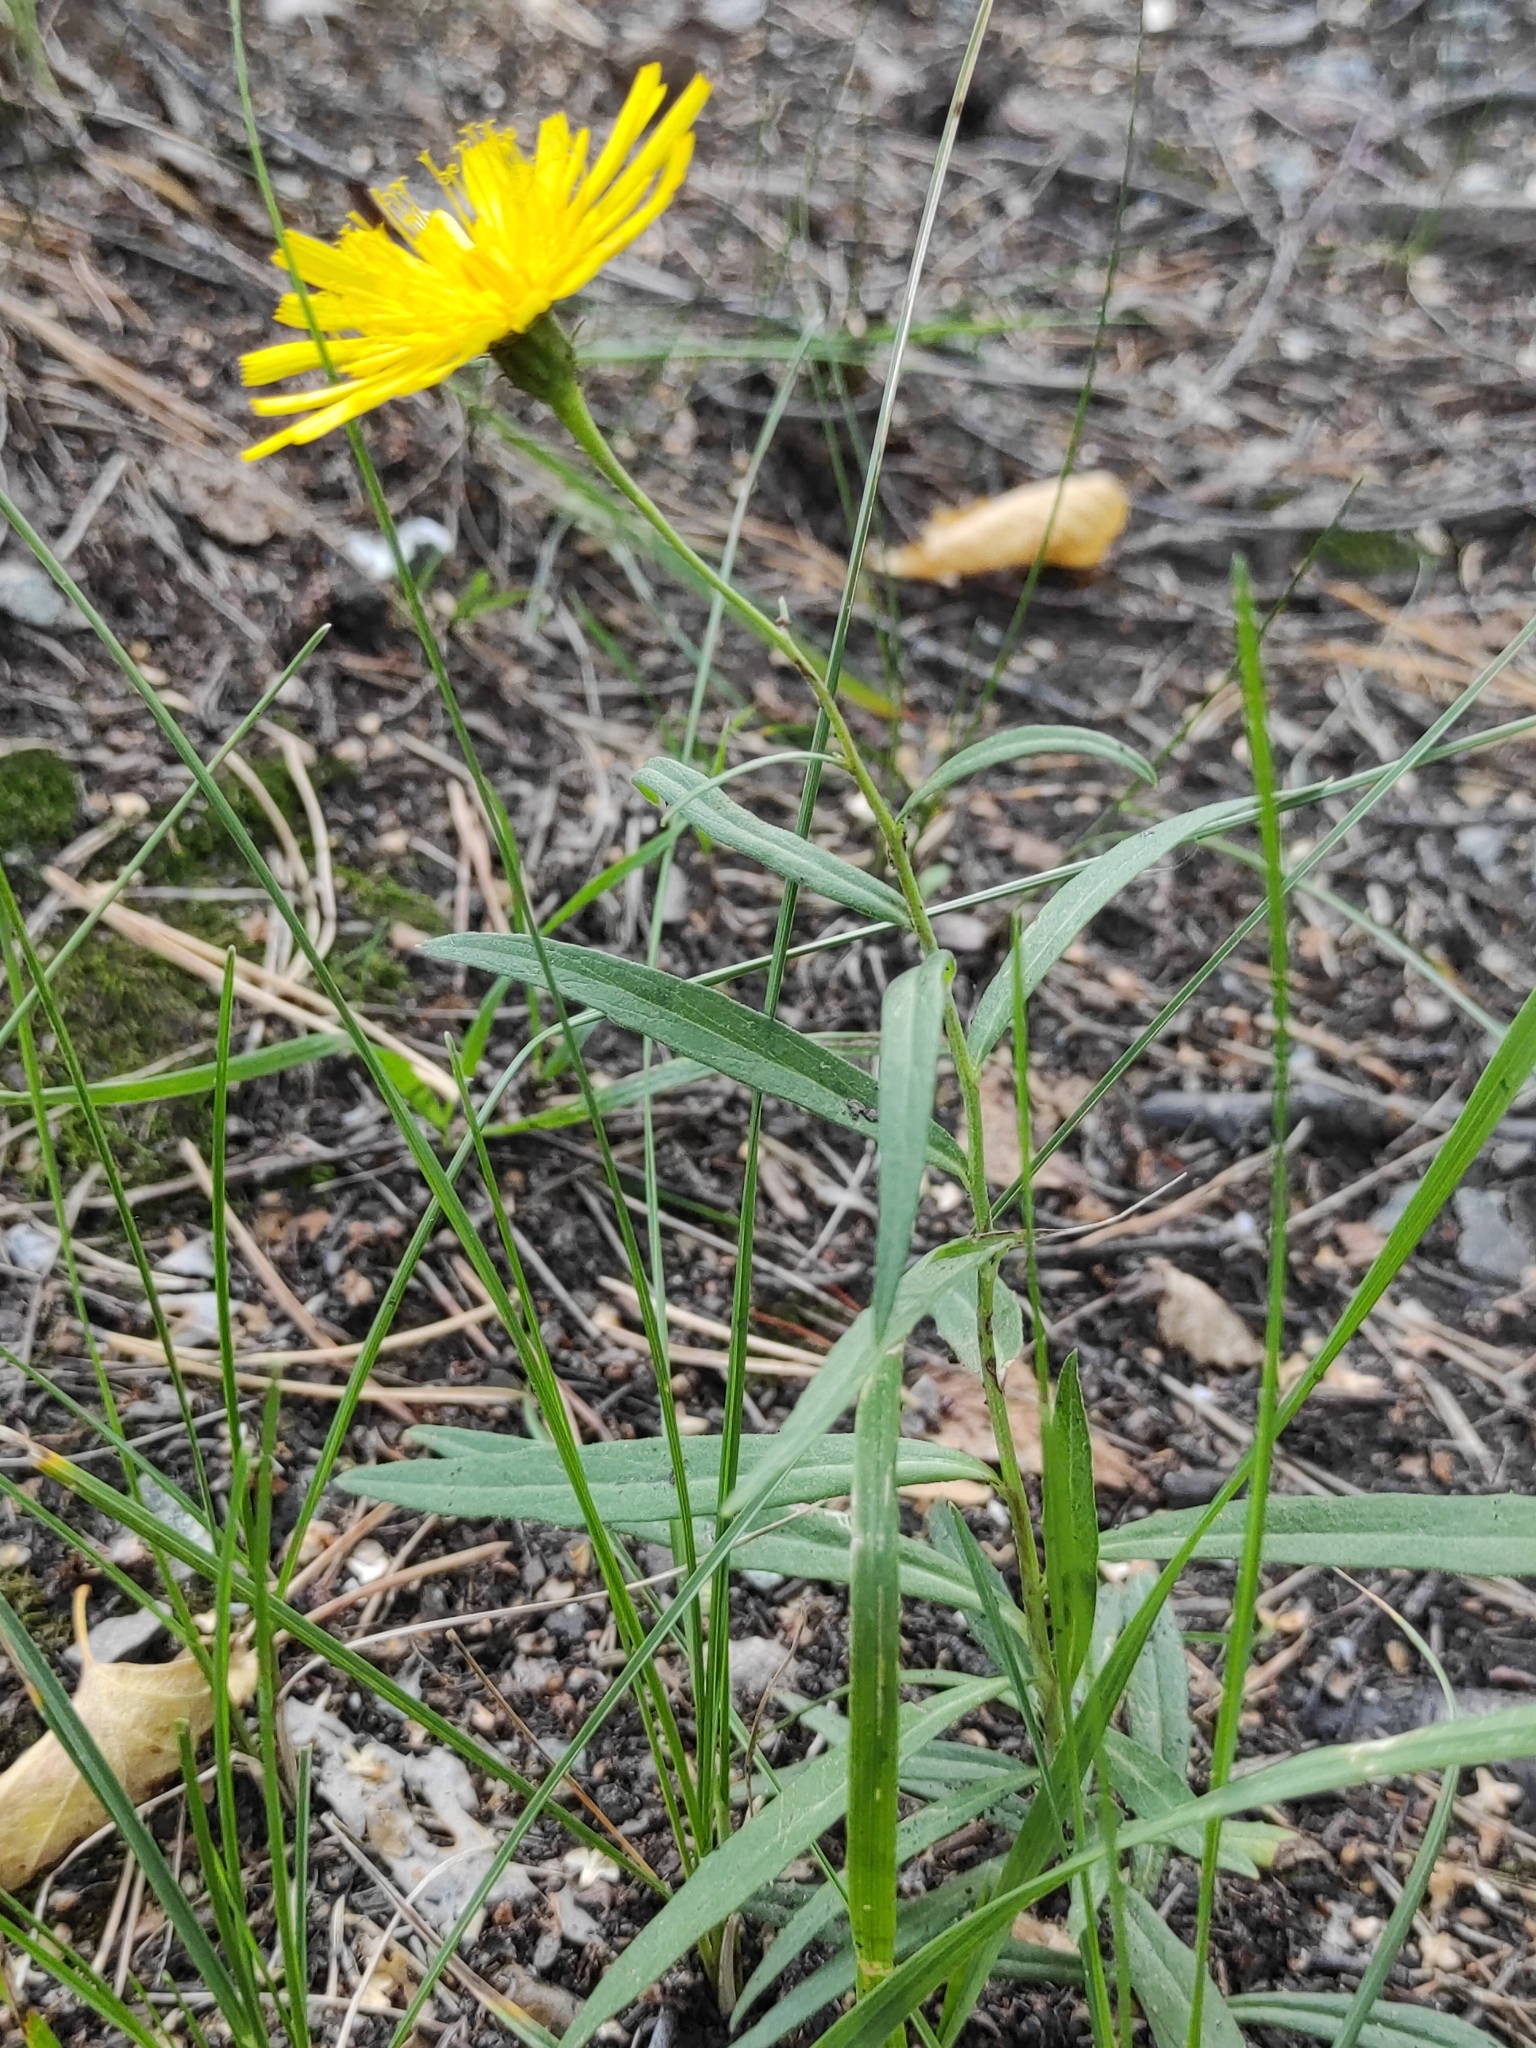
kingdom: Plantae
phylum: Tracheophyta
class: Magnoliopsida
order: Asterales
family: Asteraceae
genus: Hieracium
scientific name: Hieracium umbellatum
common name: Northern hawkweed
